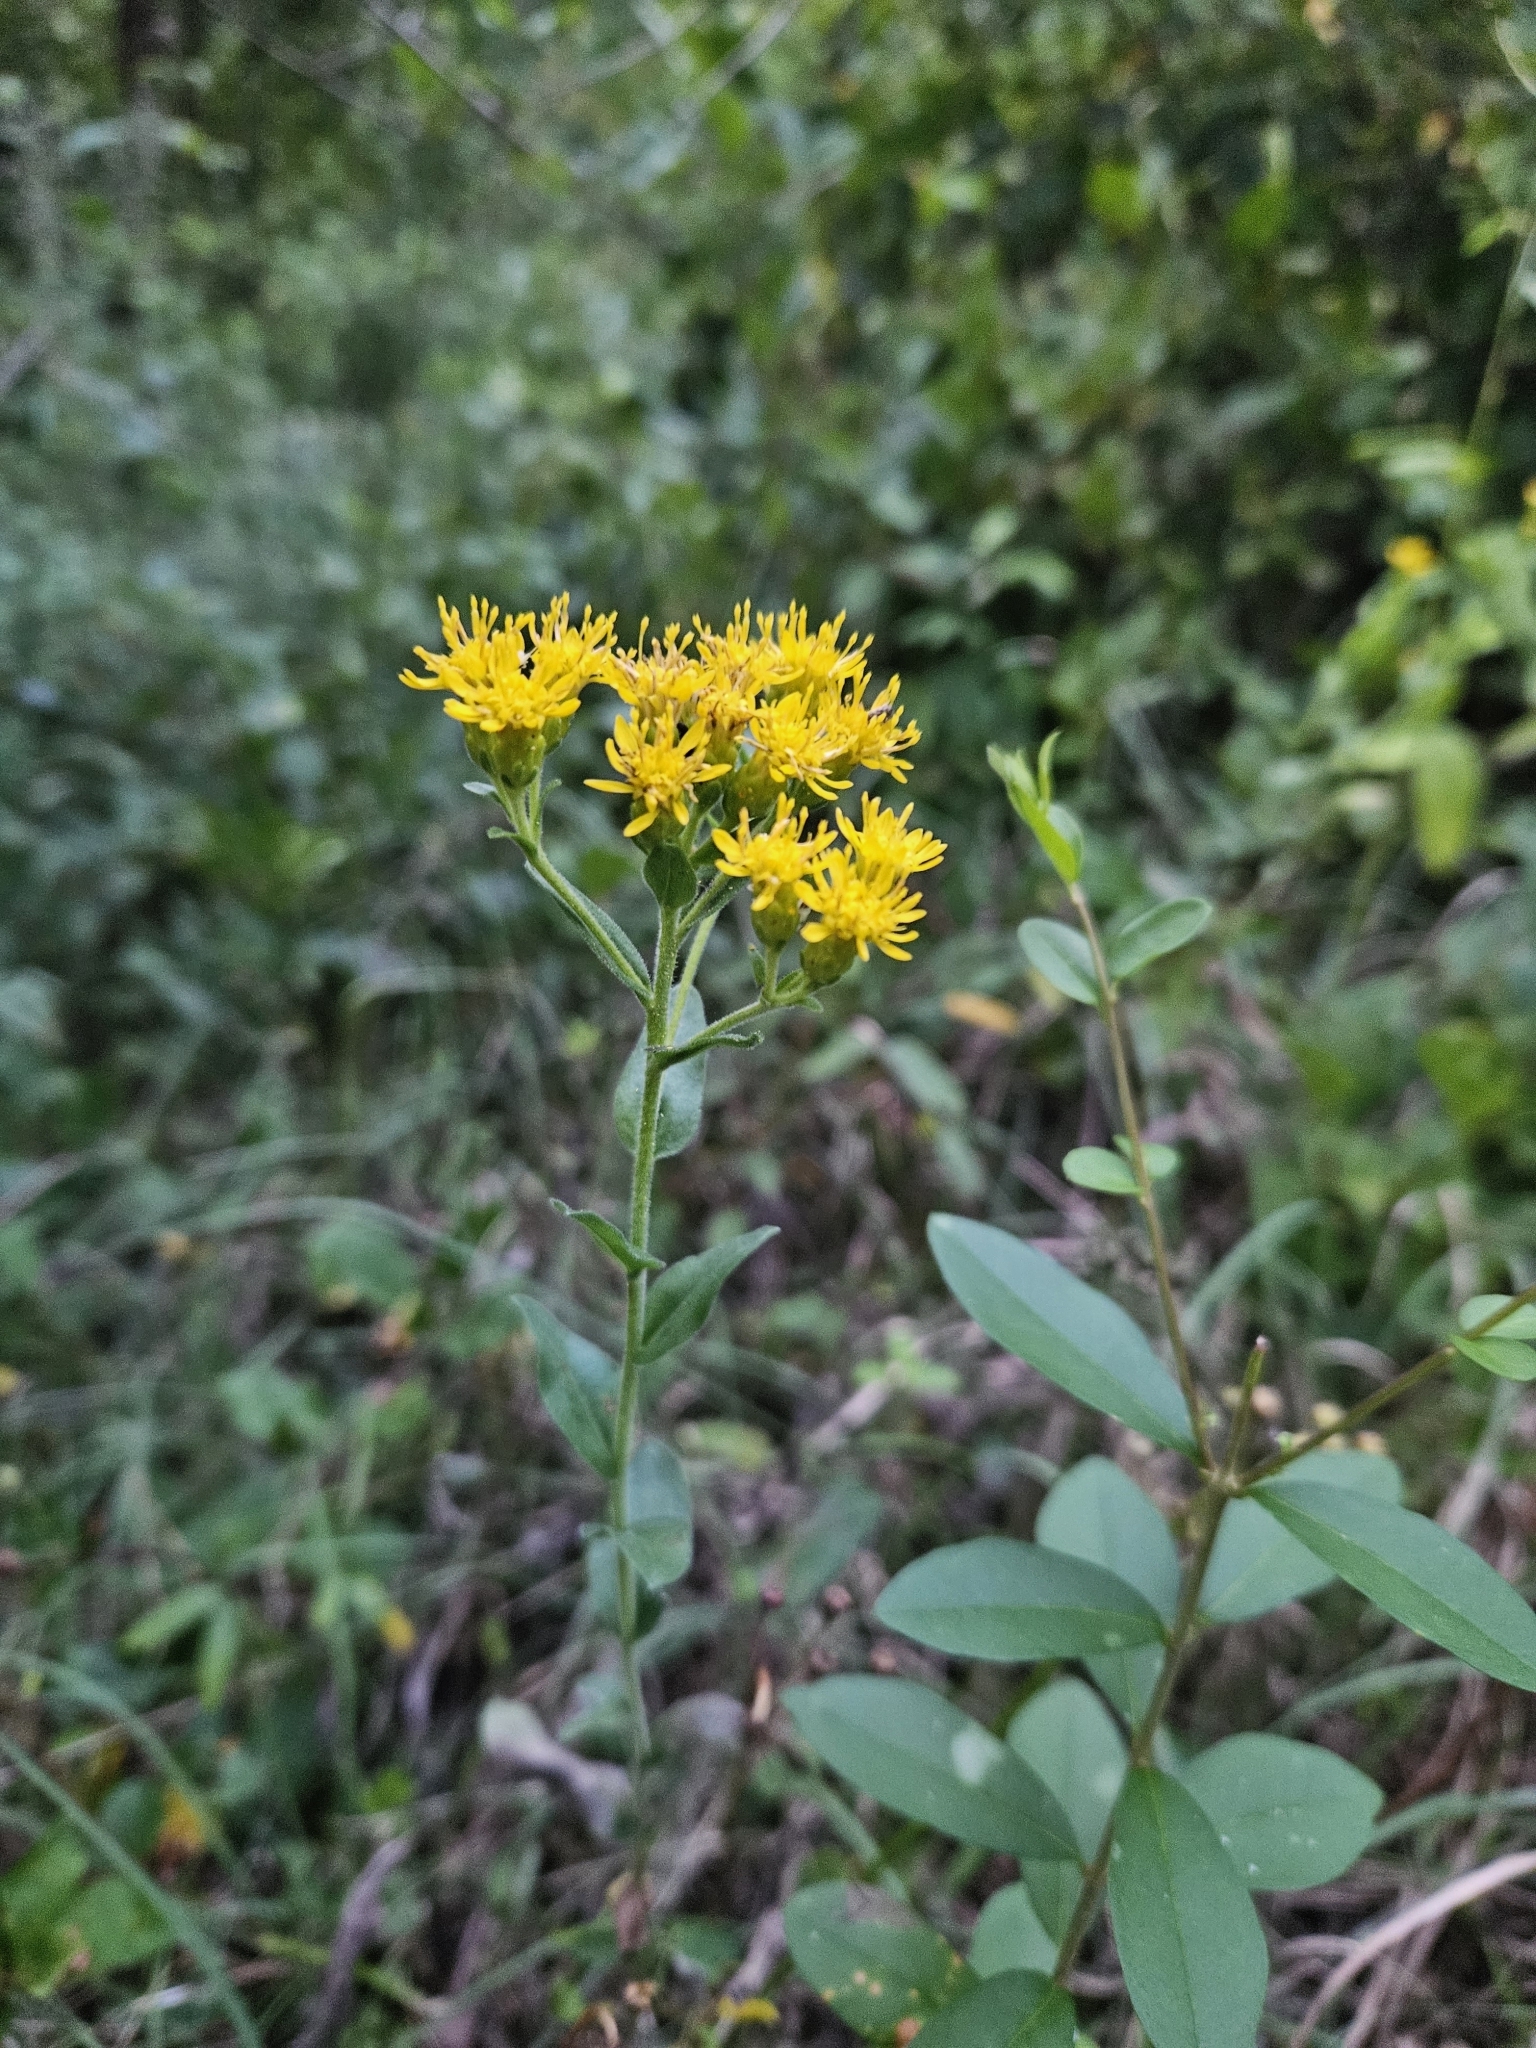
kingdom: Plantae
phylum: Tracheophyta
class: Magnoliopsida
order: Asterales
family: Asteraceae
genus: Solidago
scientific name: Solidago rigida
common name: Rigid goldenrod
